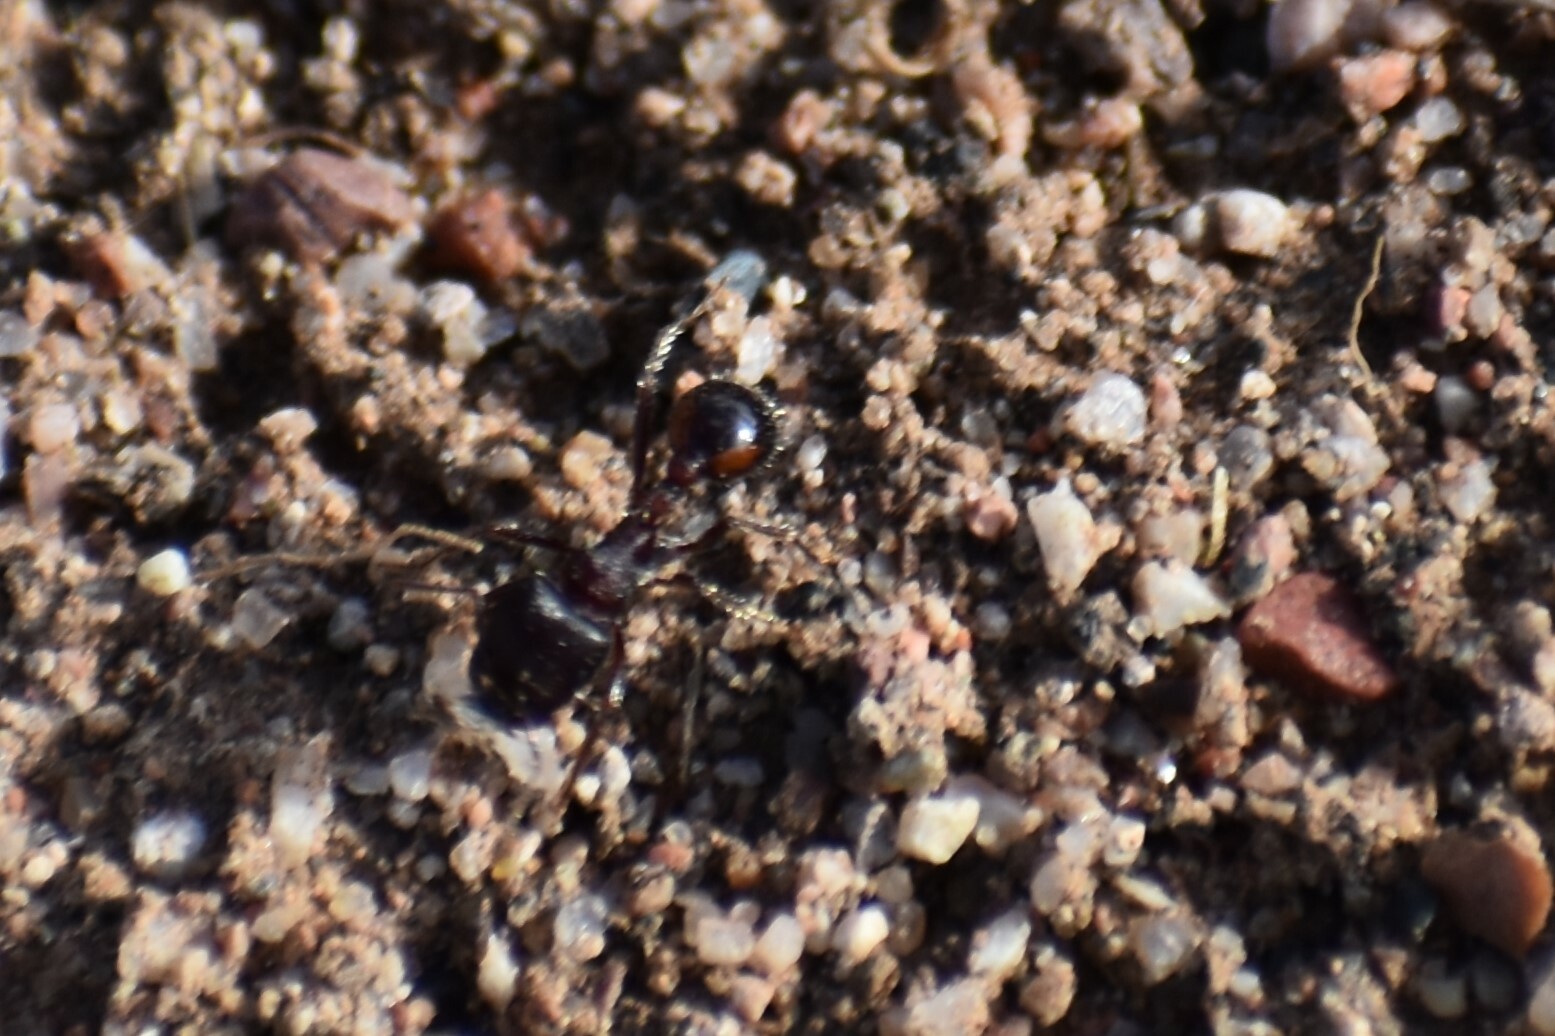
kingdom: Animalia
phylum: Arthropoda
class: Insecta
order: Hymenoptera
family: Formicidae
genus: Pogonomyrmex
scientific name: Pogonomyrmex rugosus
